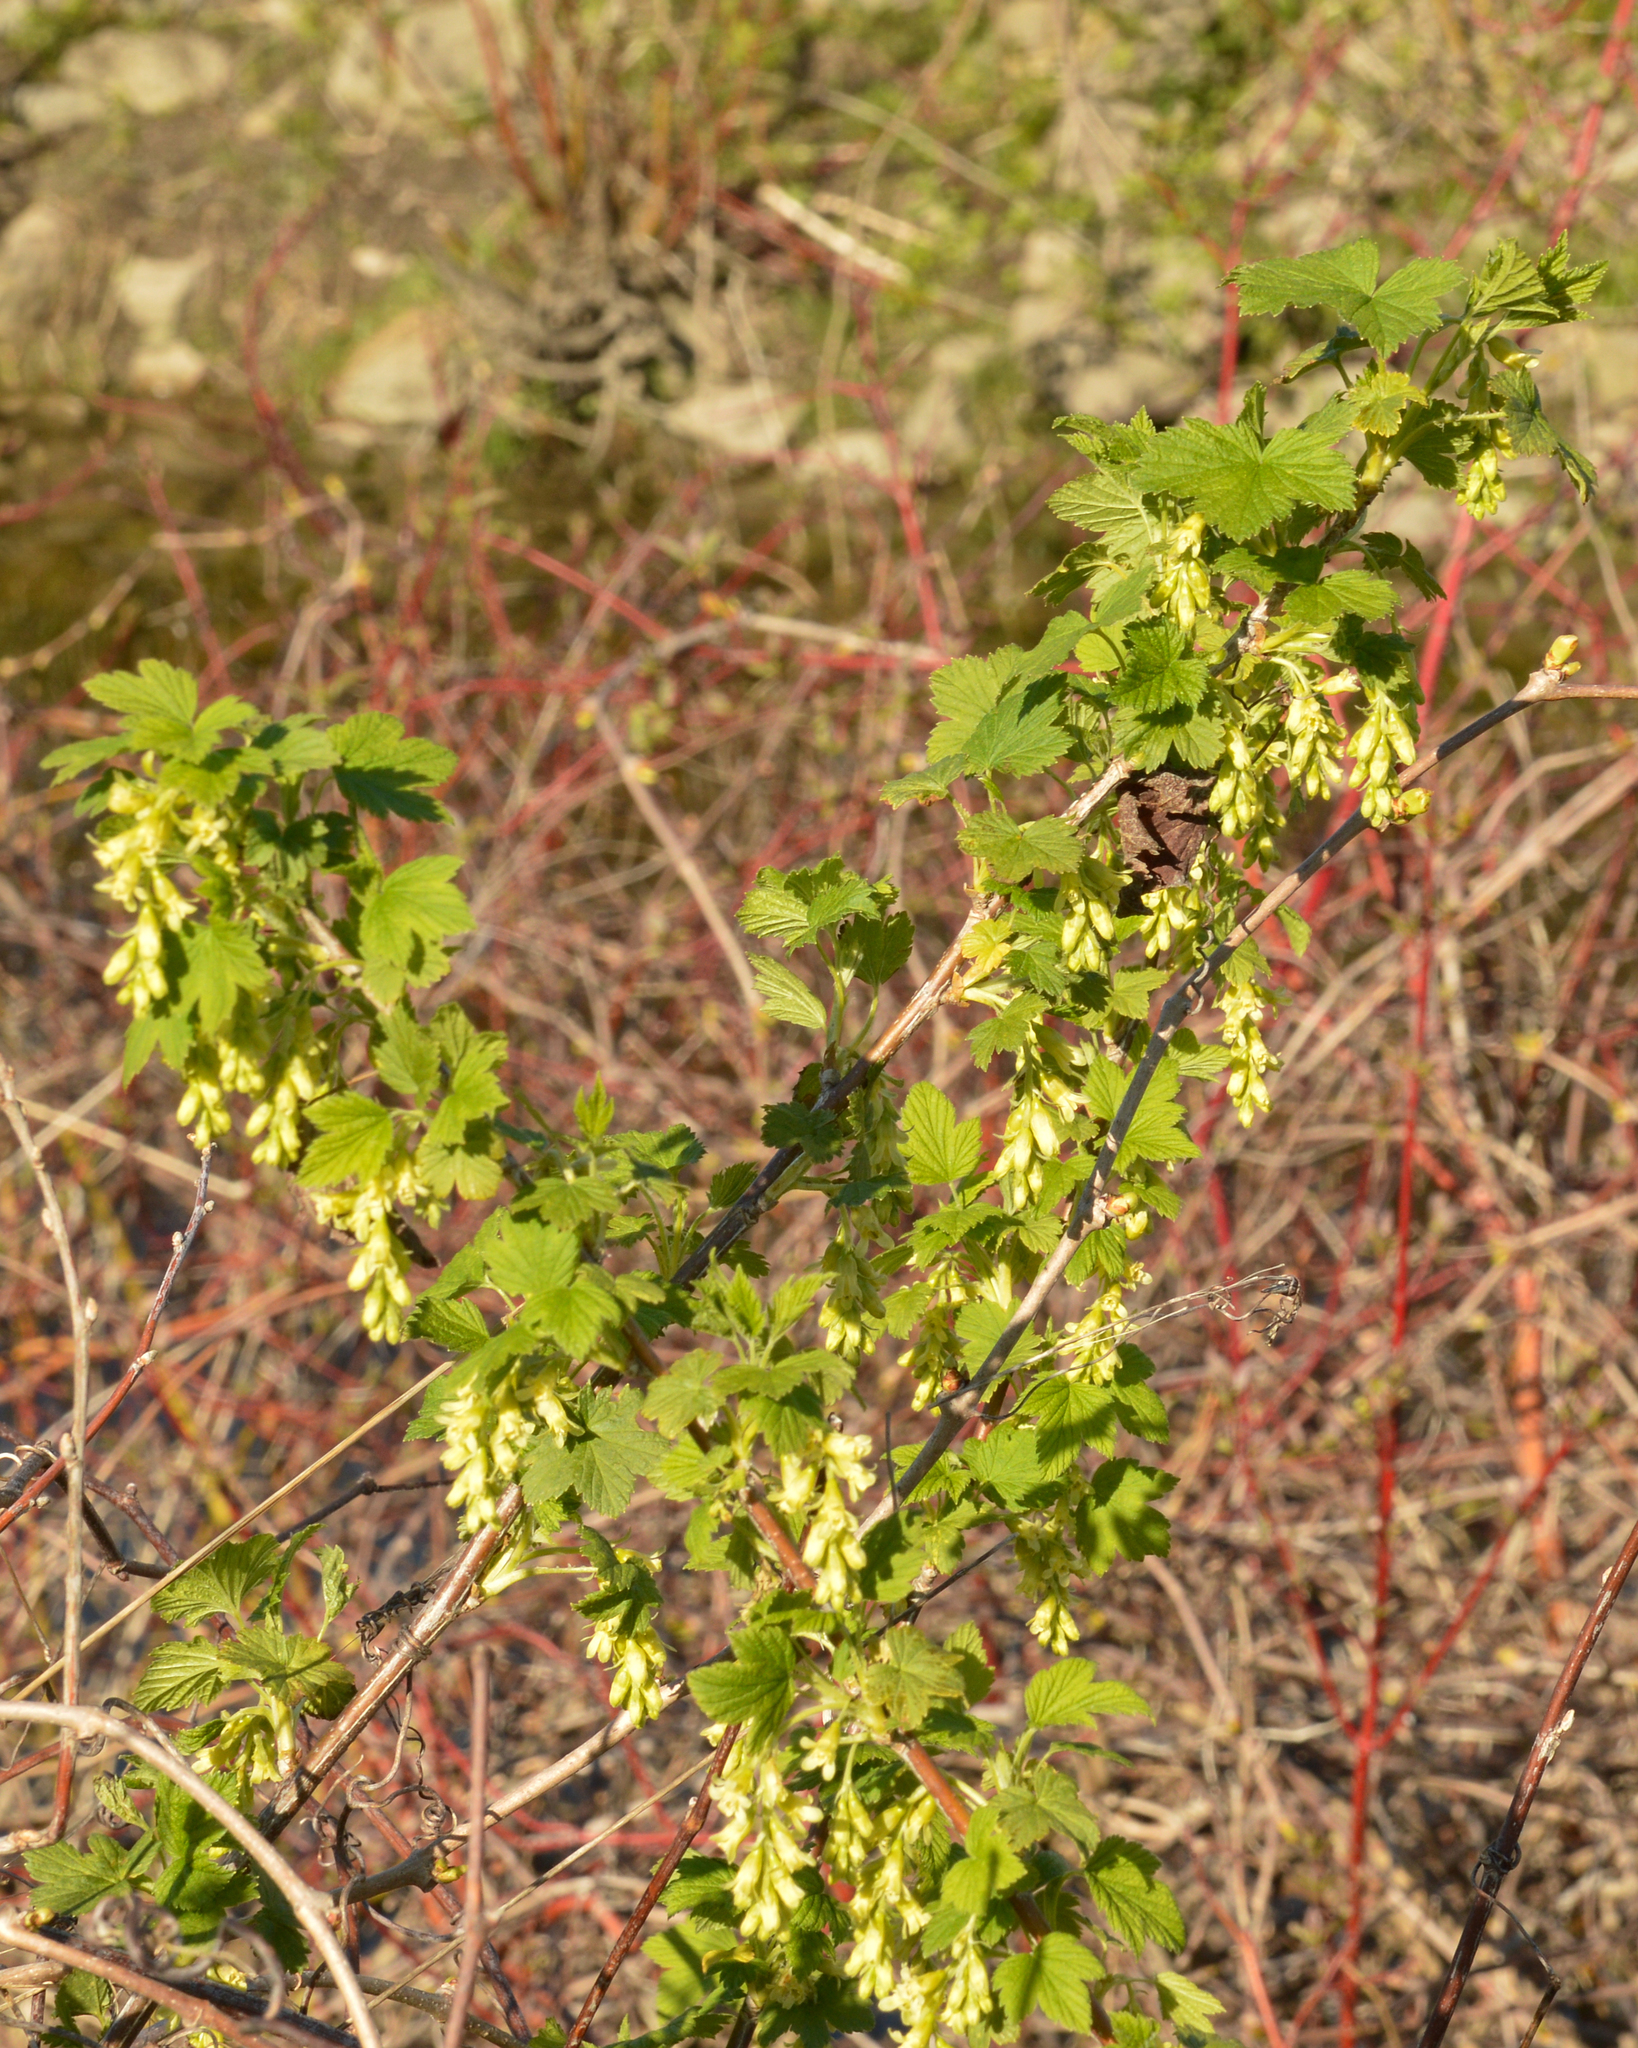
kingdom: Plantae
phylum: Tracheophyta
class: Magnoliopsida
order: Saxifragales
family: Grossulariaceae
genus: Ribes
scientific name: Ribes americanum
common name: American black currant
